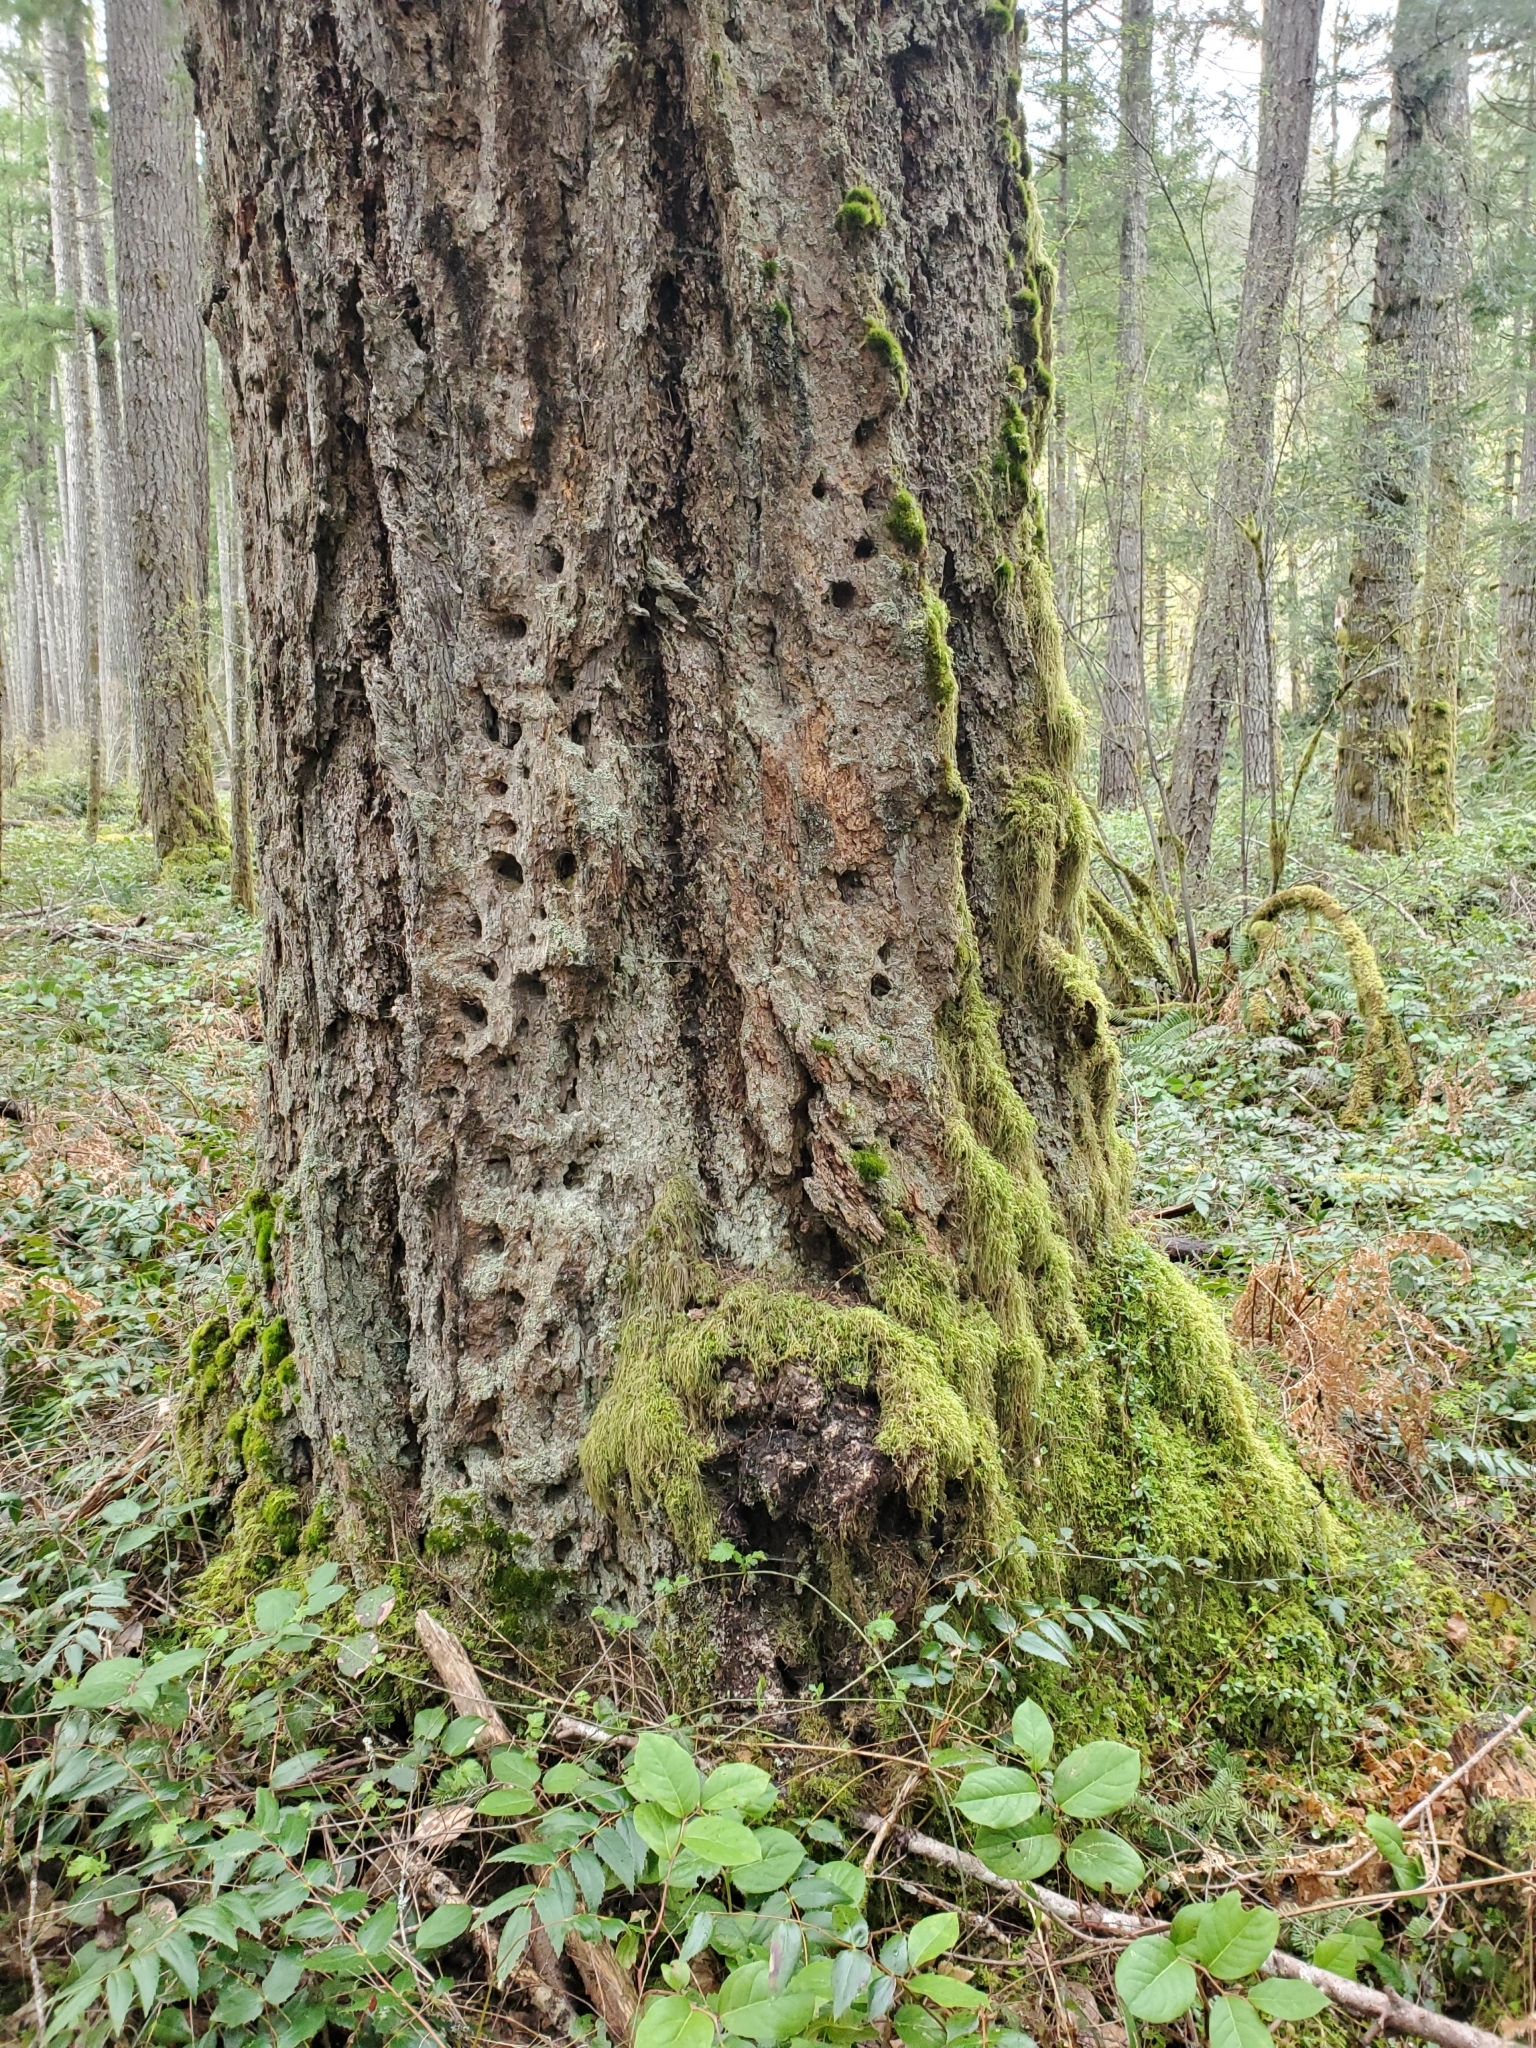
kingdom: Plantae
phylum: Tracheophyta
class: Pinopsida
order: Pinales
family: Pinaceae
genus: Pseudotsuga
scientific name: Pseudotsuga menziesii
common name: Douglas fir
